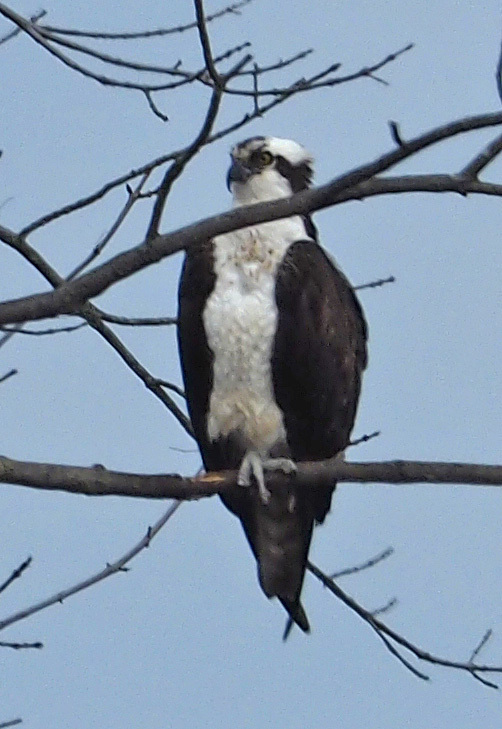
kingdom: Animalia
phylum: Chordata
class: Aves
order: Accipitriformes
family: Pandionidae
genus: Pandion
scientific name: Pandion haliaetus
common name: Osprey
